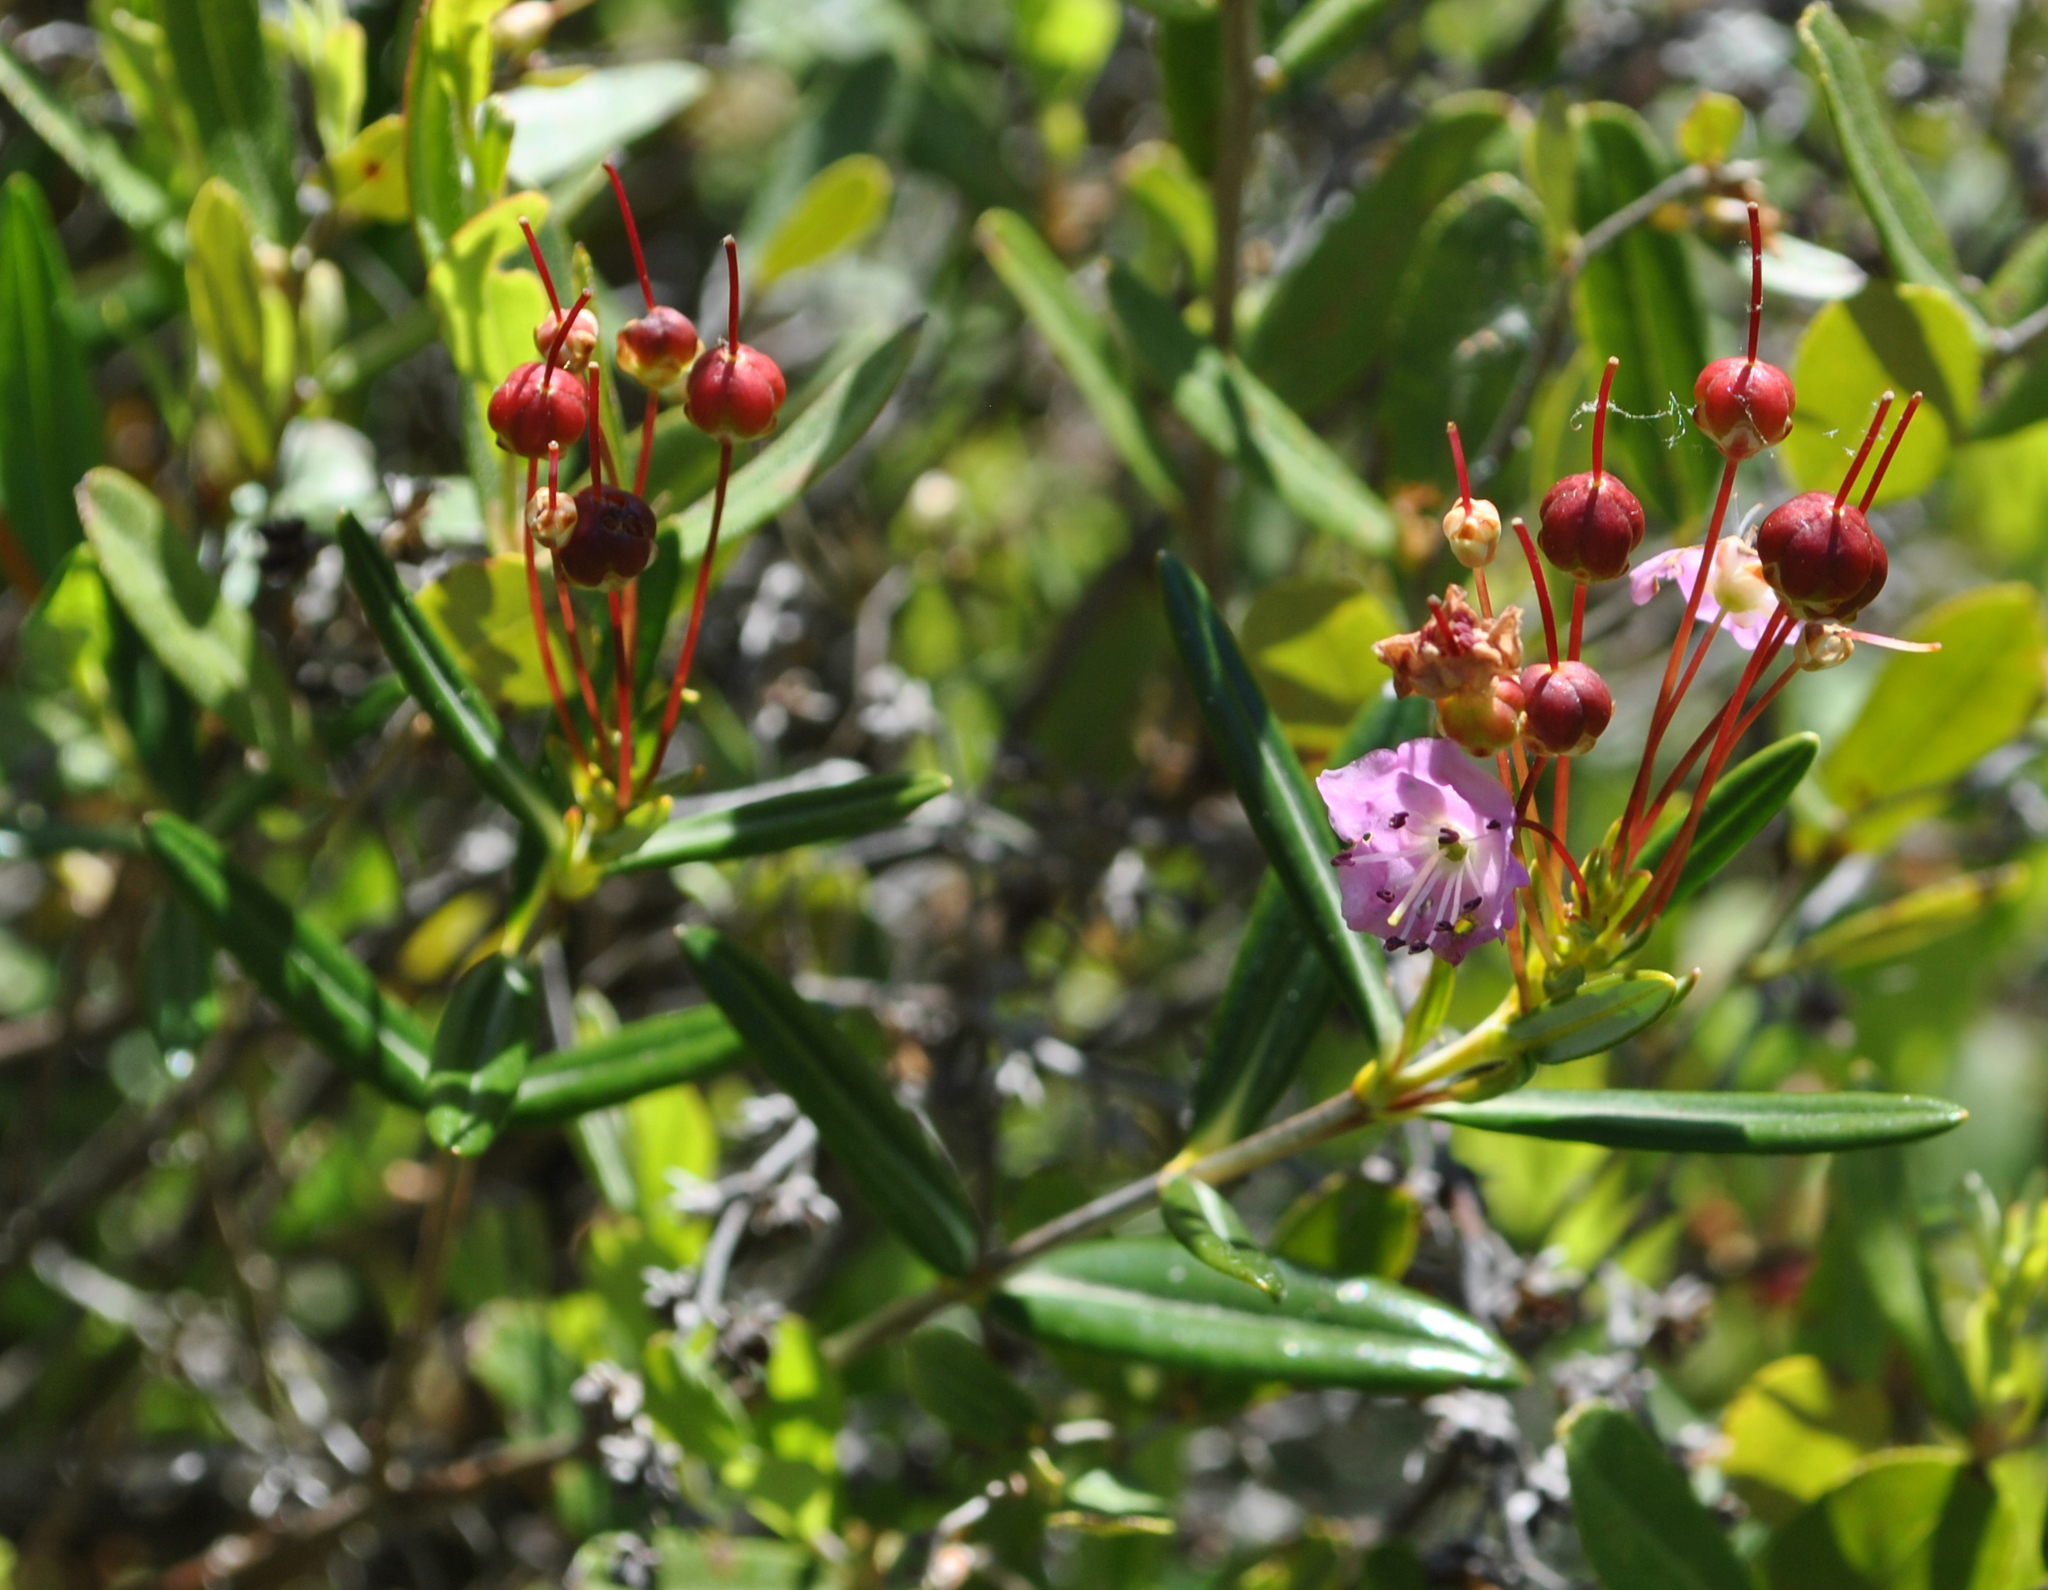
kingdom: Plantae
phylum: Tracheophyta
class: Magnoliopsida
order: Ericales
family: Ericaceae
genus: Kalmia
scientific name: Kalmia polifolia
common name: Bog-laurel
